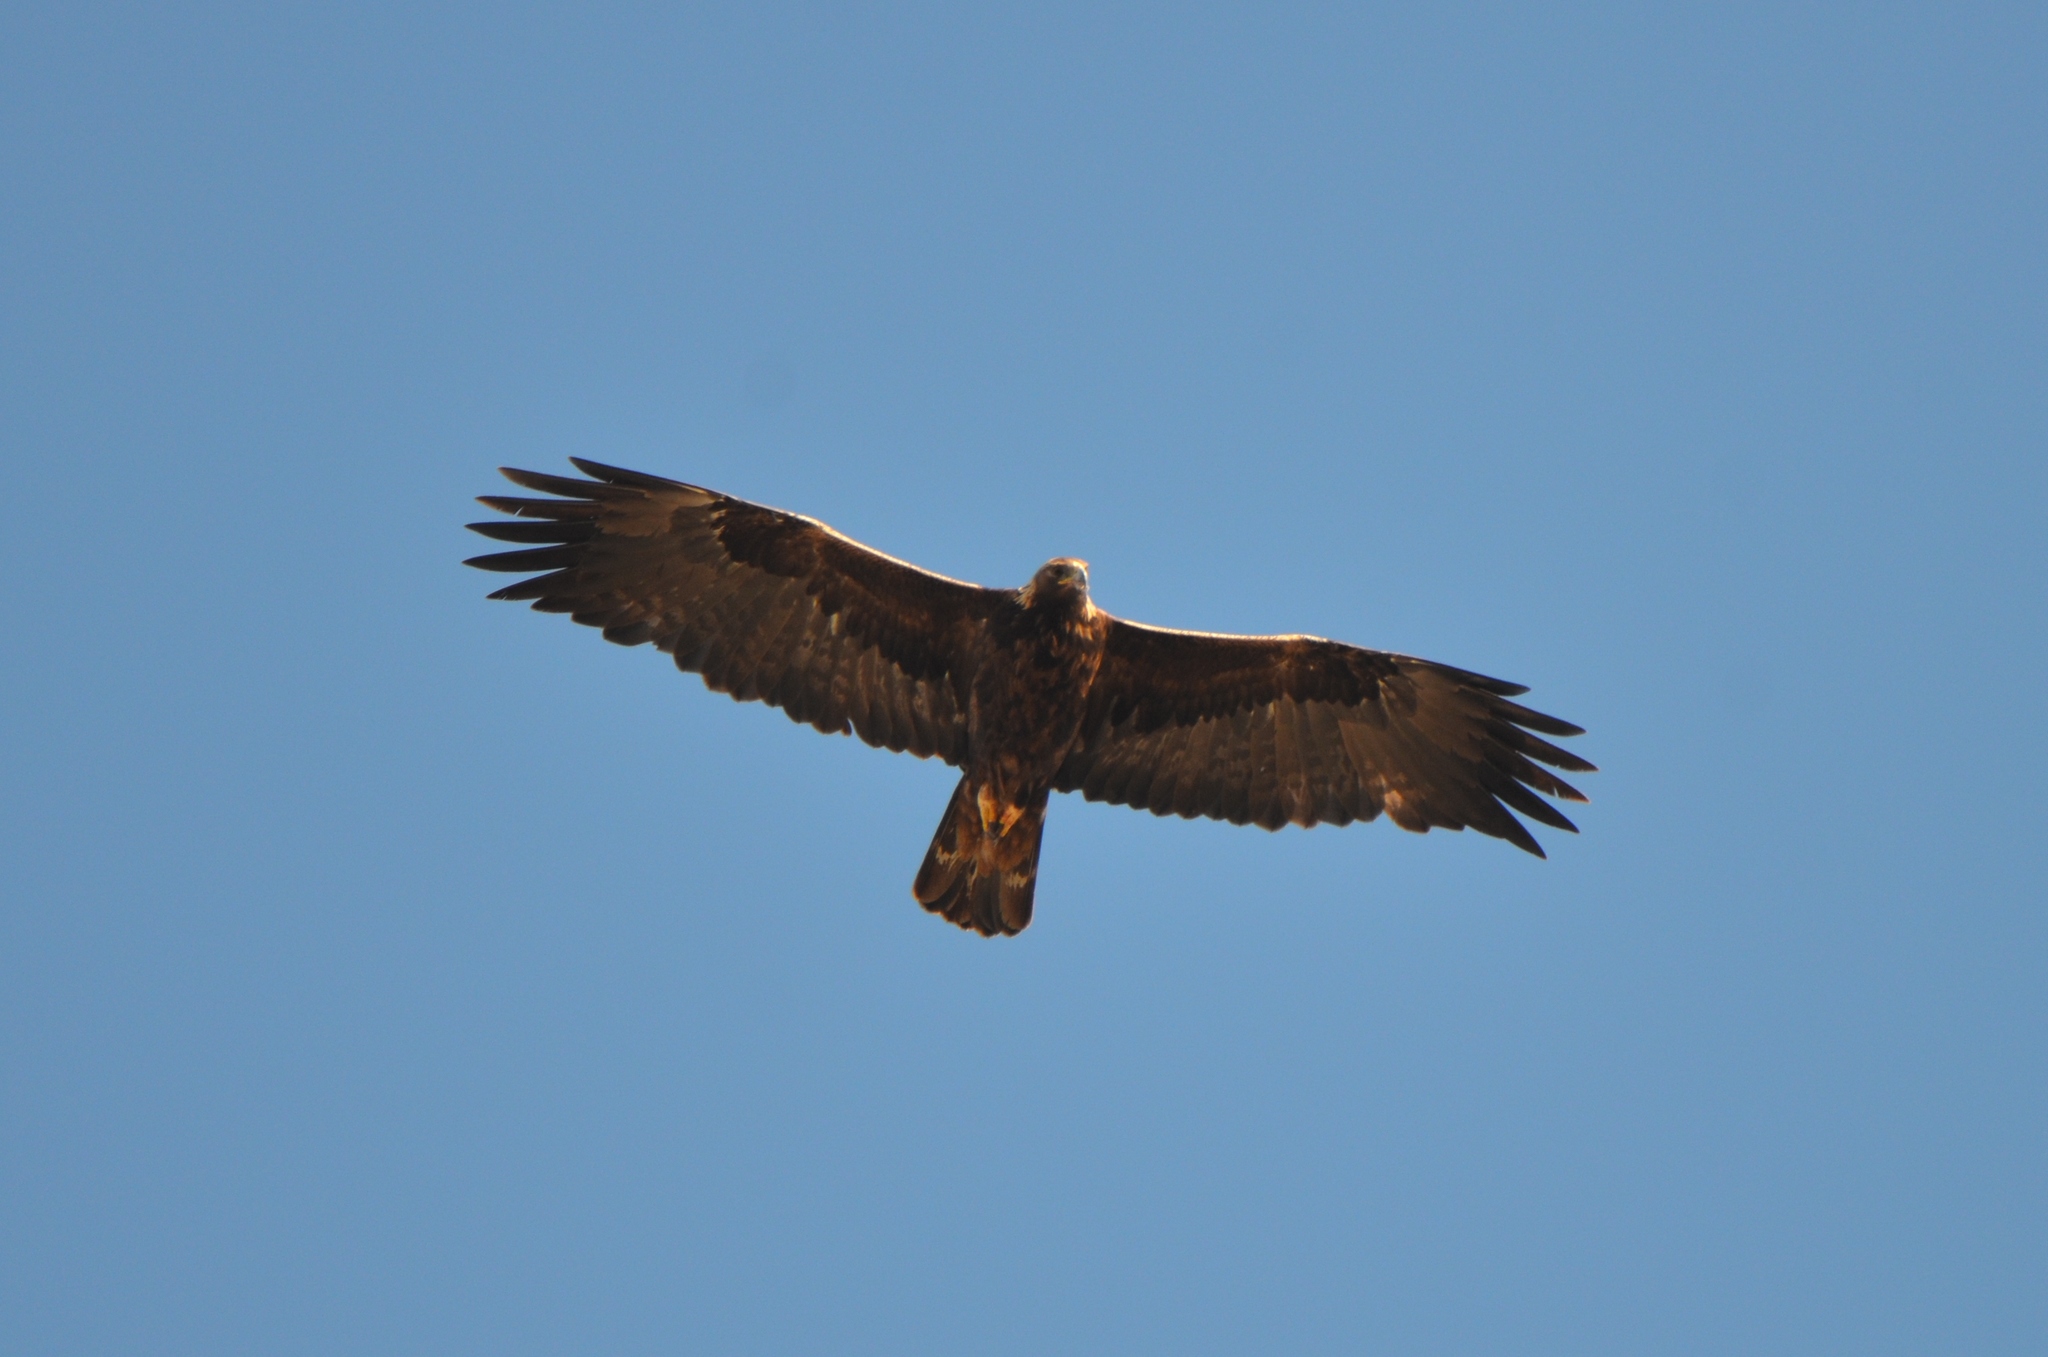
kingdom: Animalia
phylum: Chordata
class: Aves
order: Accipitriformes
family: Accipitridae
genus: Aquila
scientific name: Aquila chrysaetos
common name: Golden eagle
